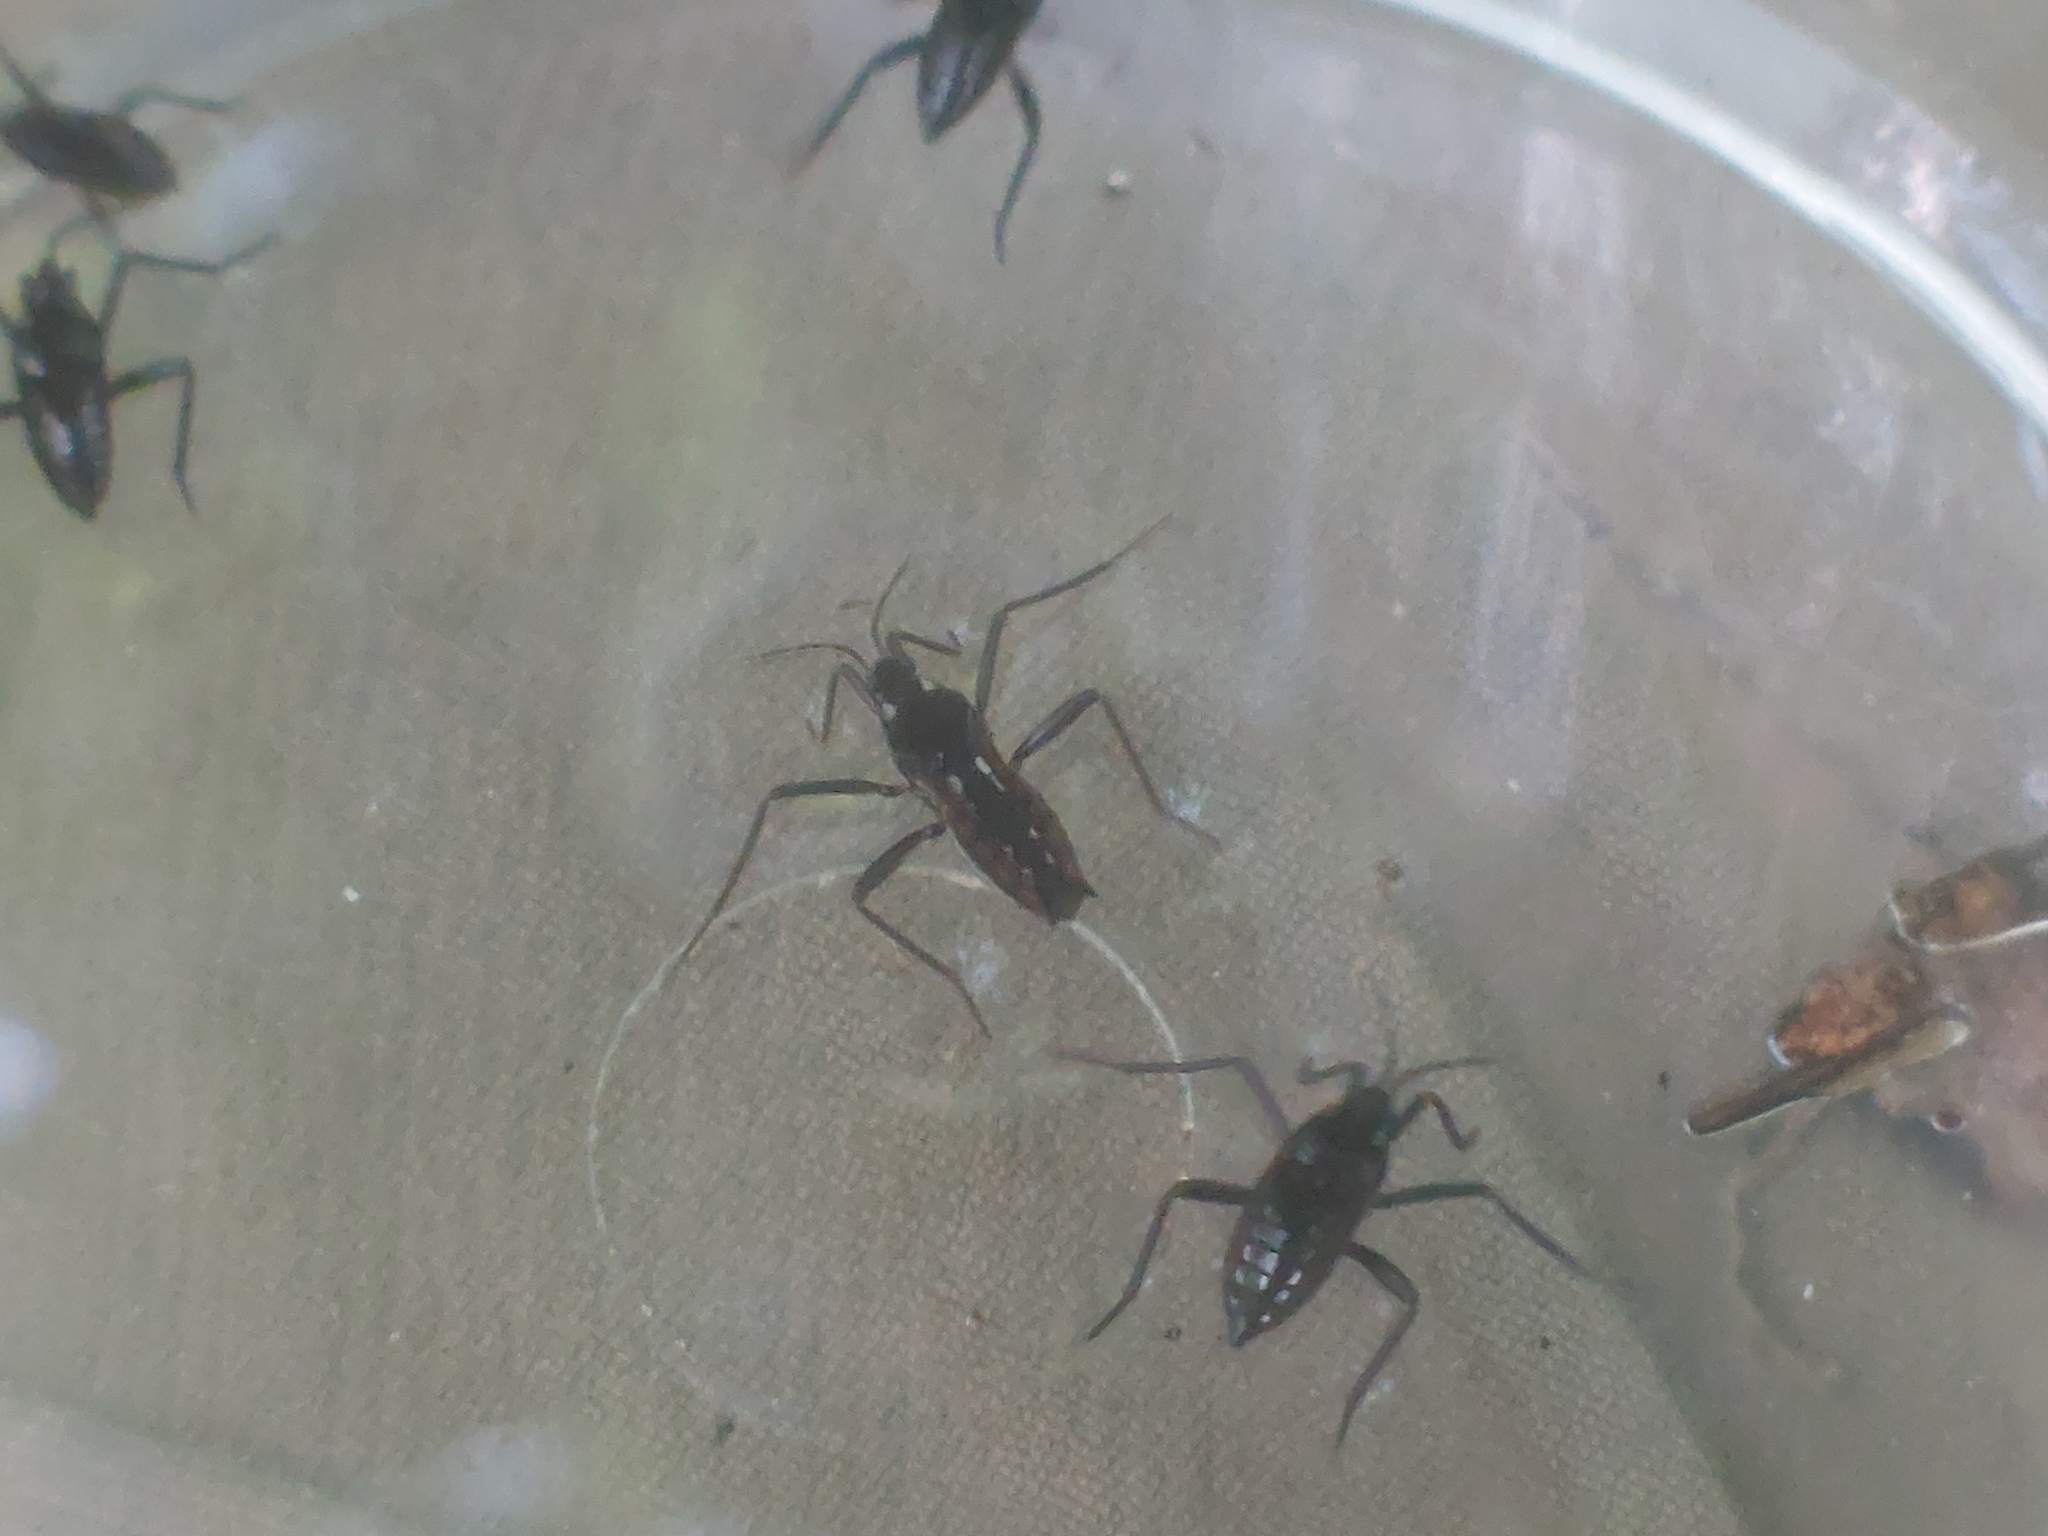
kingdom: Animalia
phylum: Arthropoda
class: Insecta
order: Hemiptera
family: Veliidae
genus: Velia
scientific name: Velia
